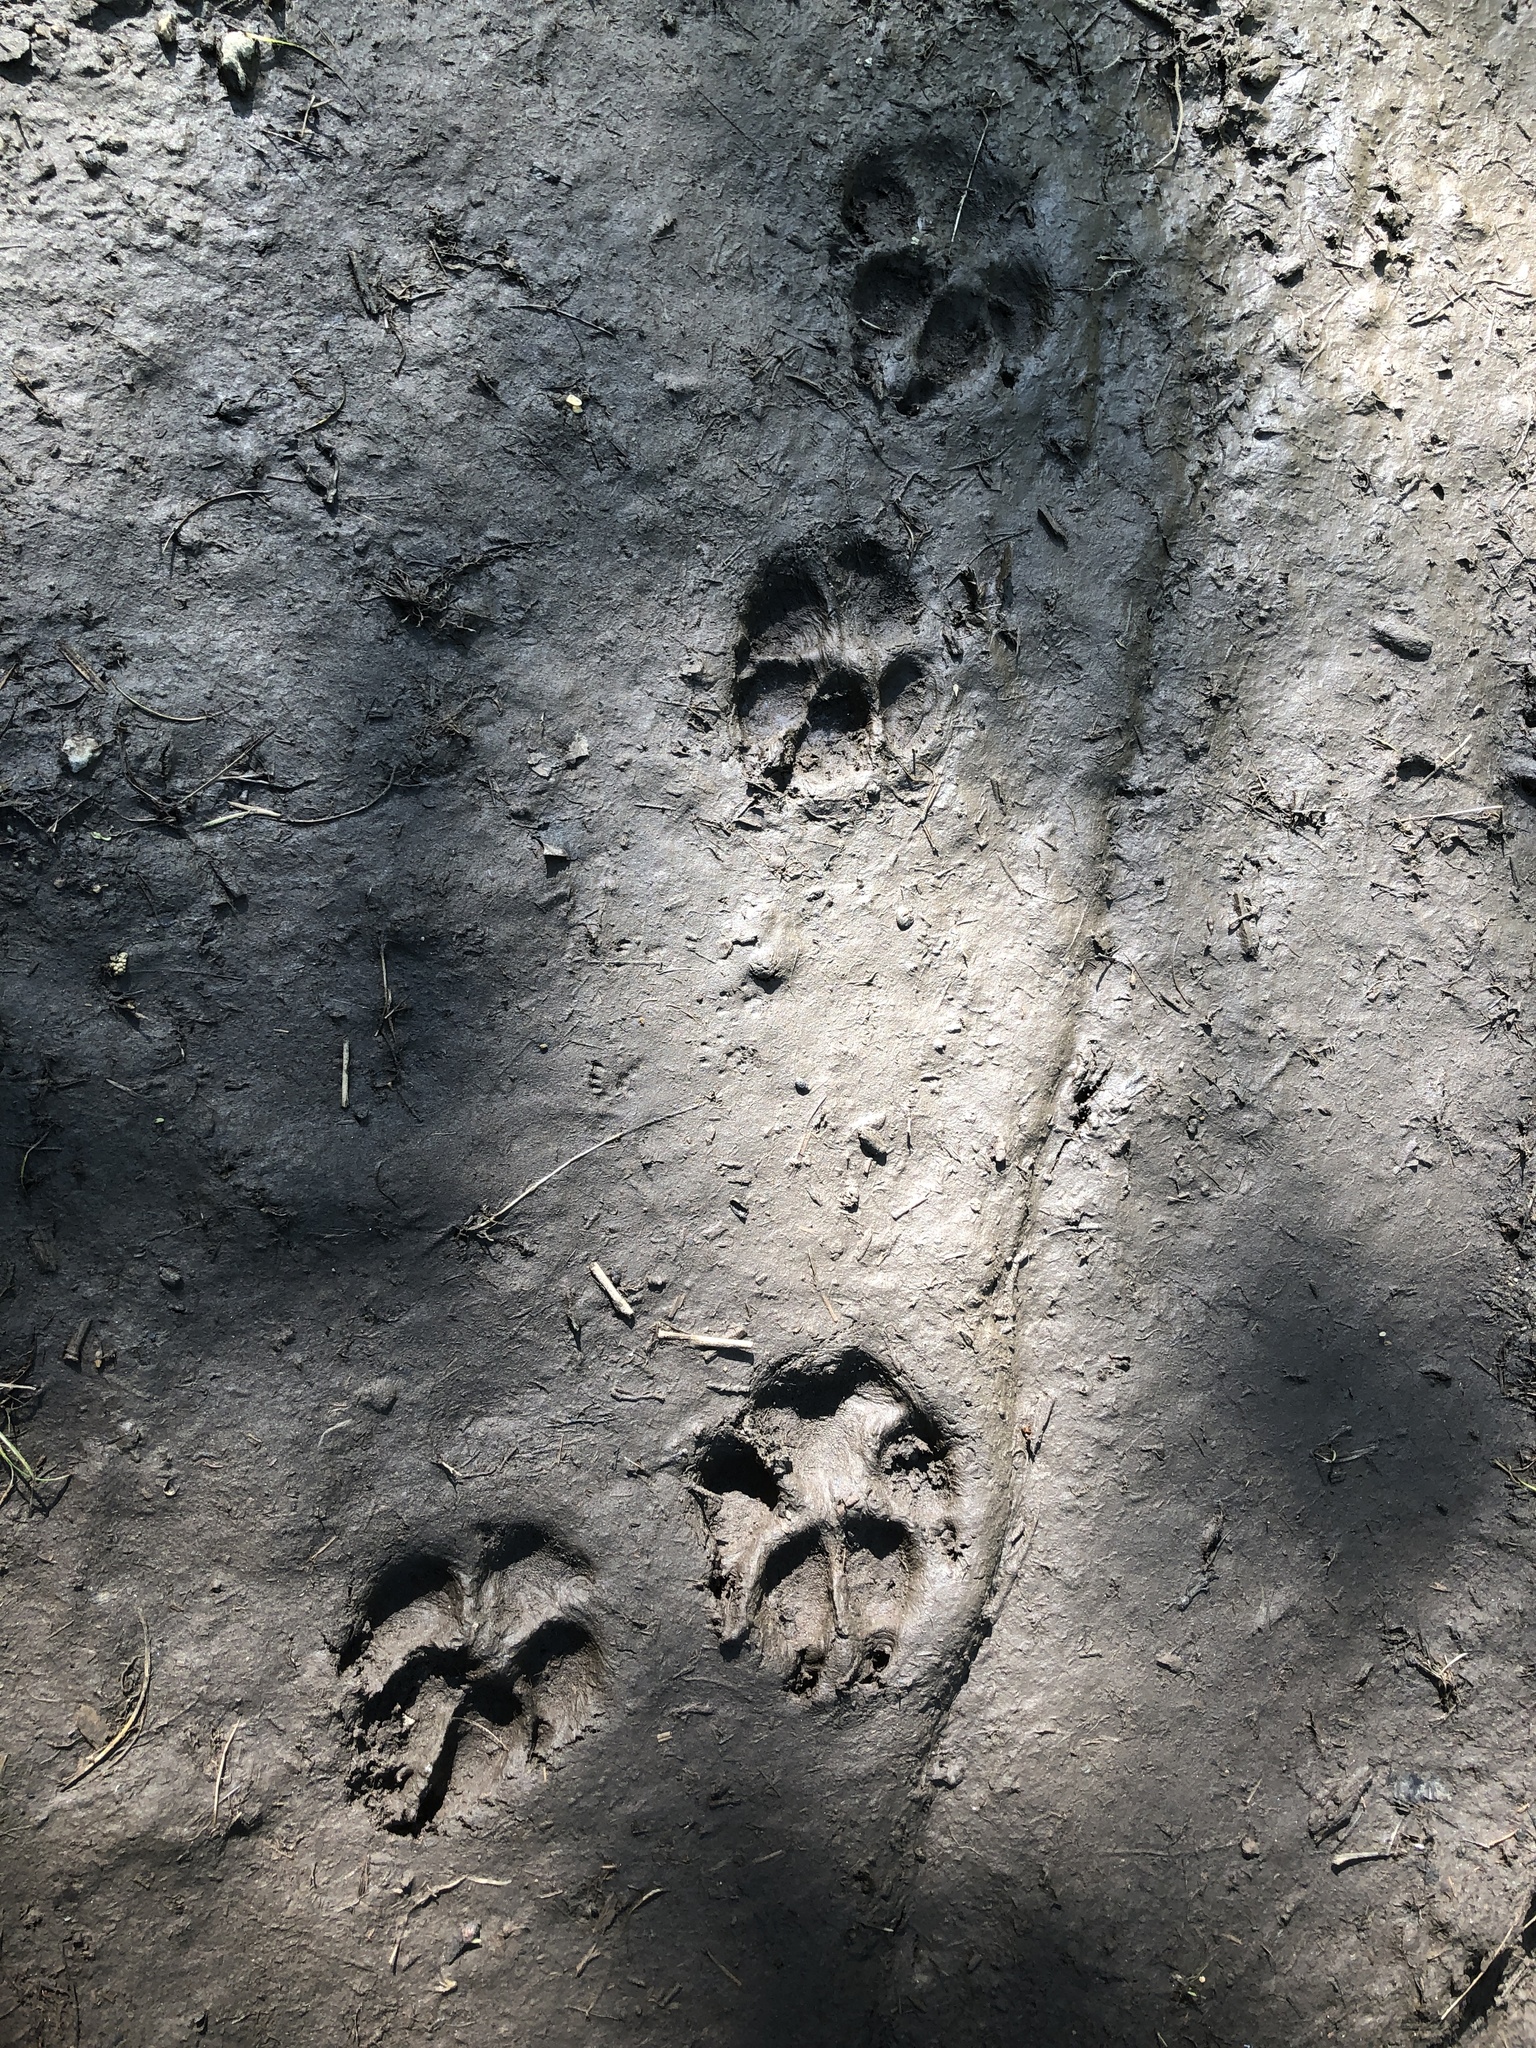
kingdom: Animalia
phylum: Chordata
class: Mammalia
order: Carnivora
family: Canidae
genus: Canis
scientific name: Canis latrans
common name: Coyote
